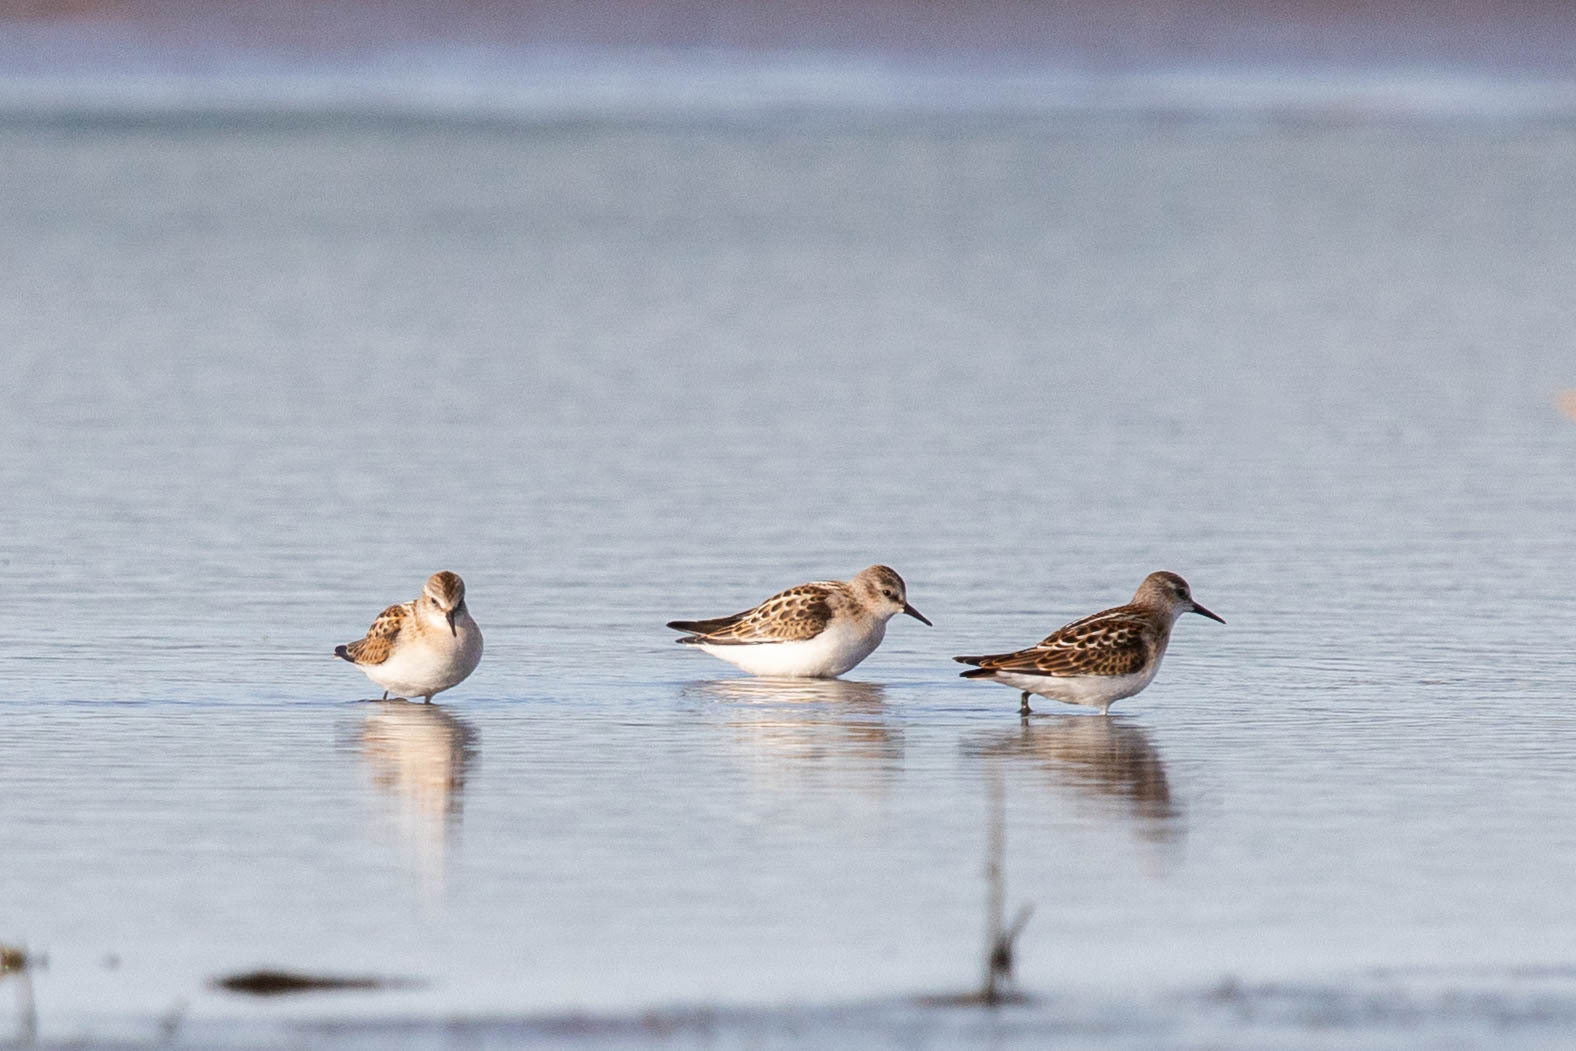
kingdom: Animalia
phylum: Chordata
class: Aves
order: Charadriiformes
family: Scolopacidae
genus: Calidris
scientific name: Calidris minuta
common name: Little stint
